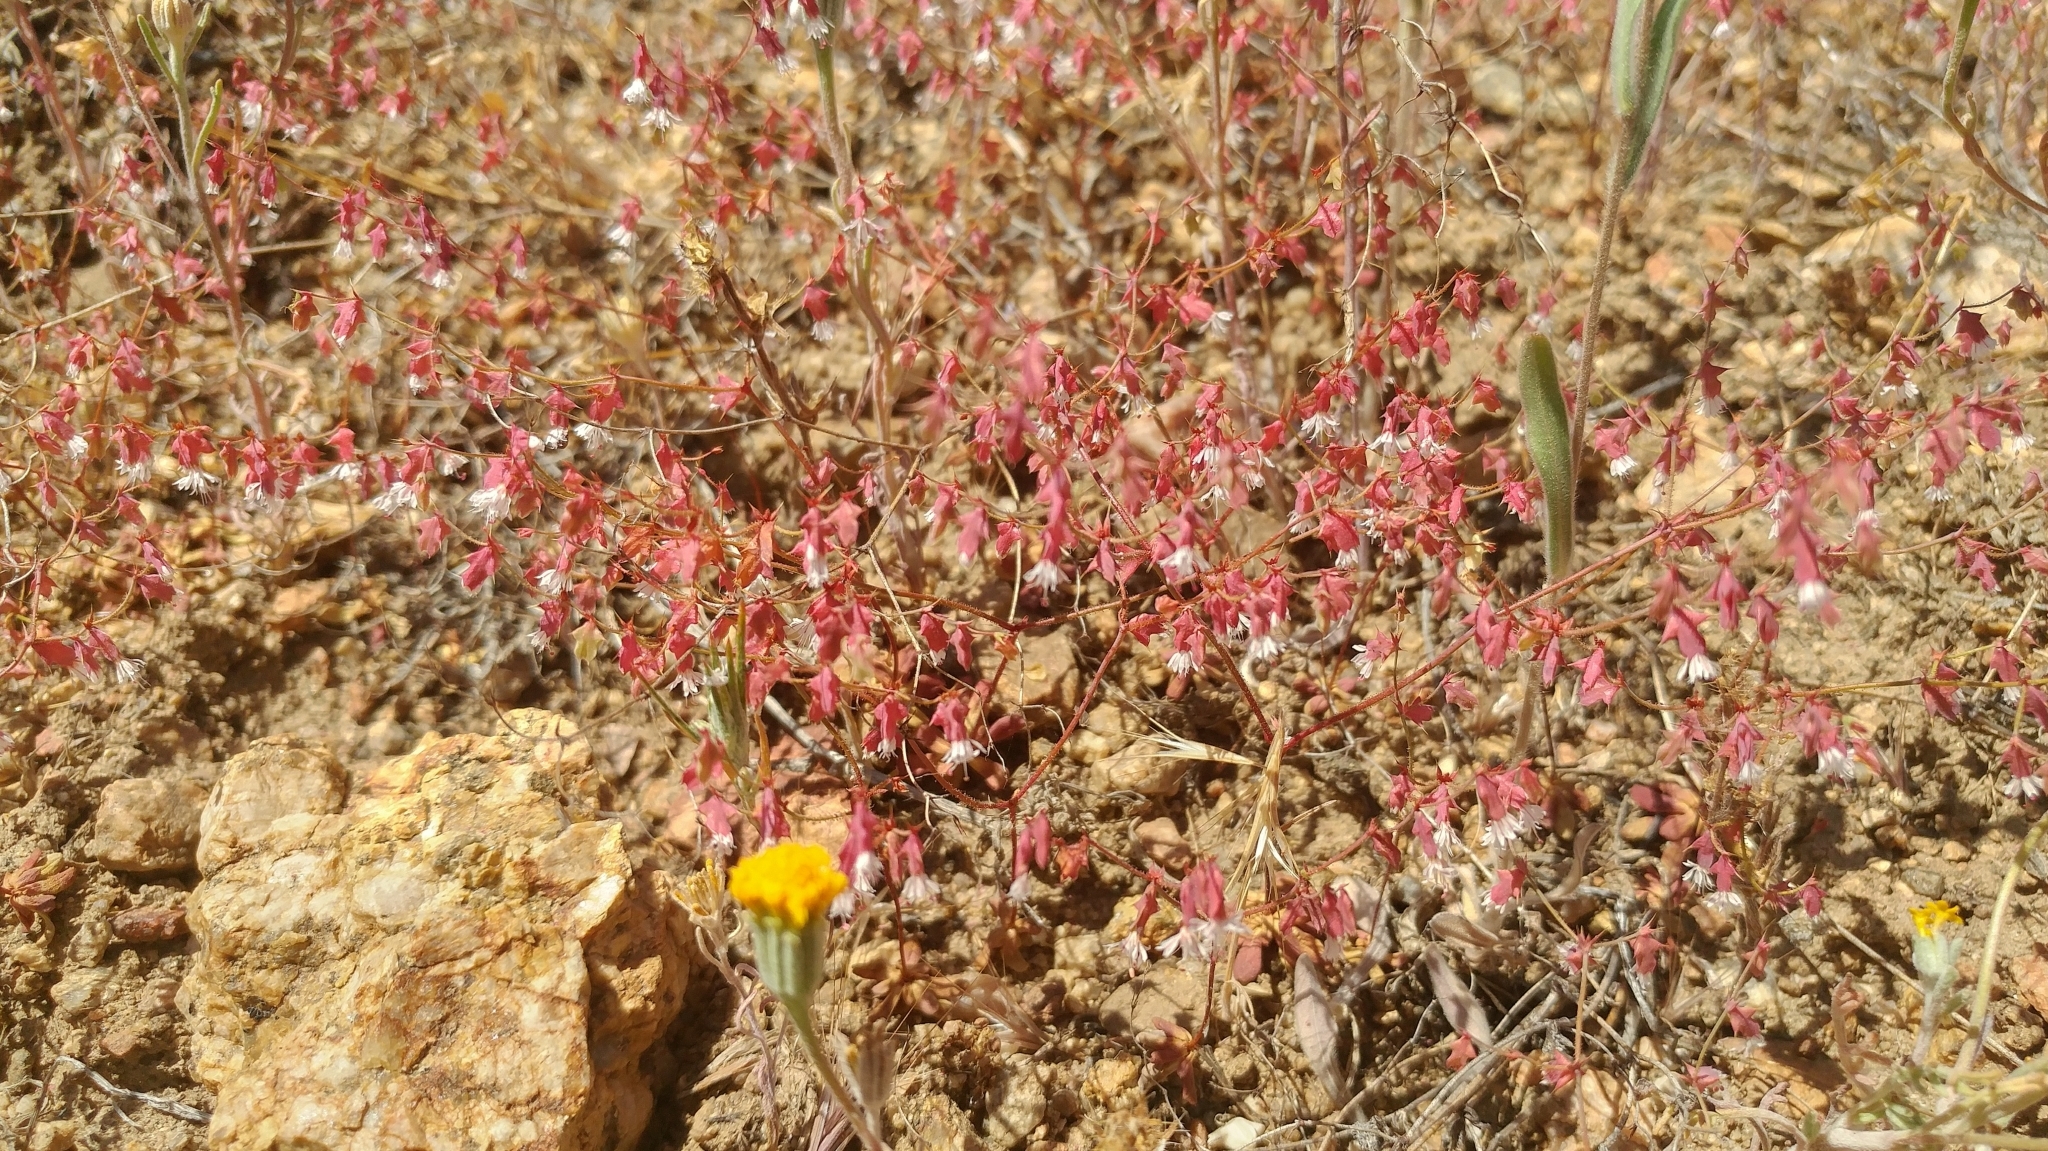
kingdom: Plantae
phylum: Tracheophyta
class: Magnoliopsida
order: Caryophyllales
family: Polygonaceae
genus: Centrostegia
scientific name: Centrostegia thurberi
